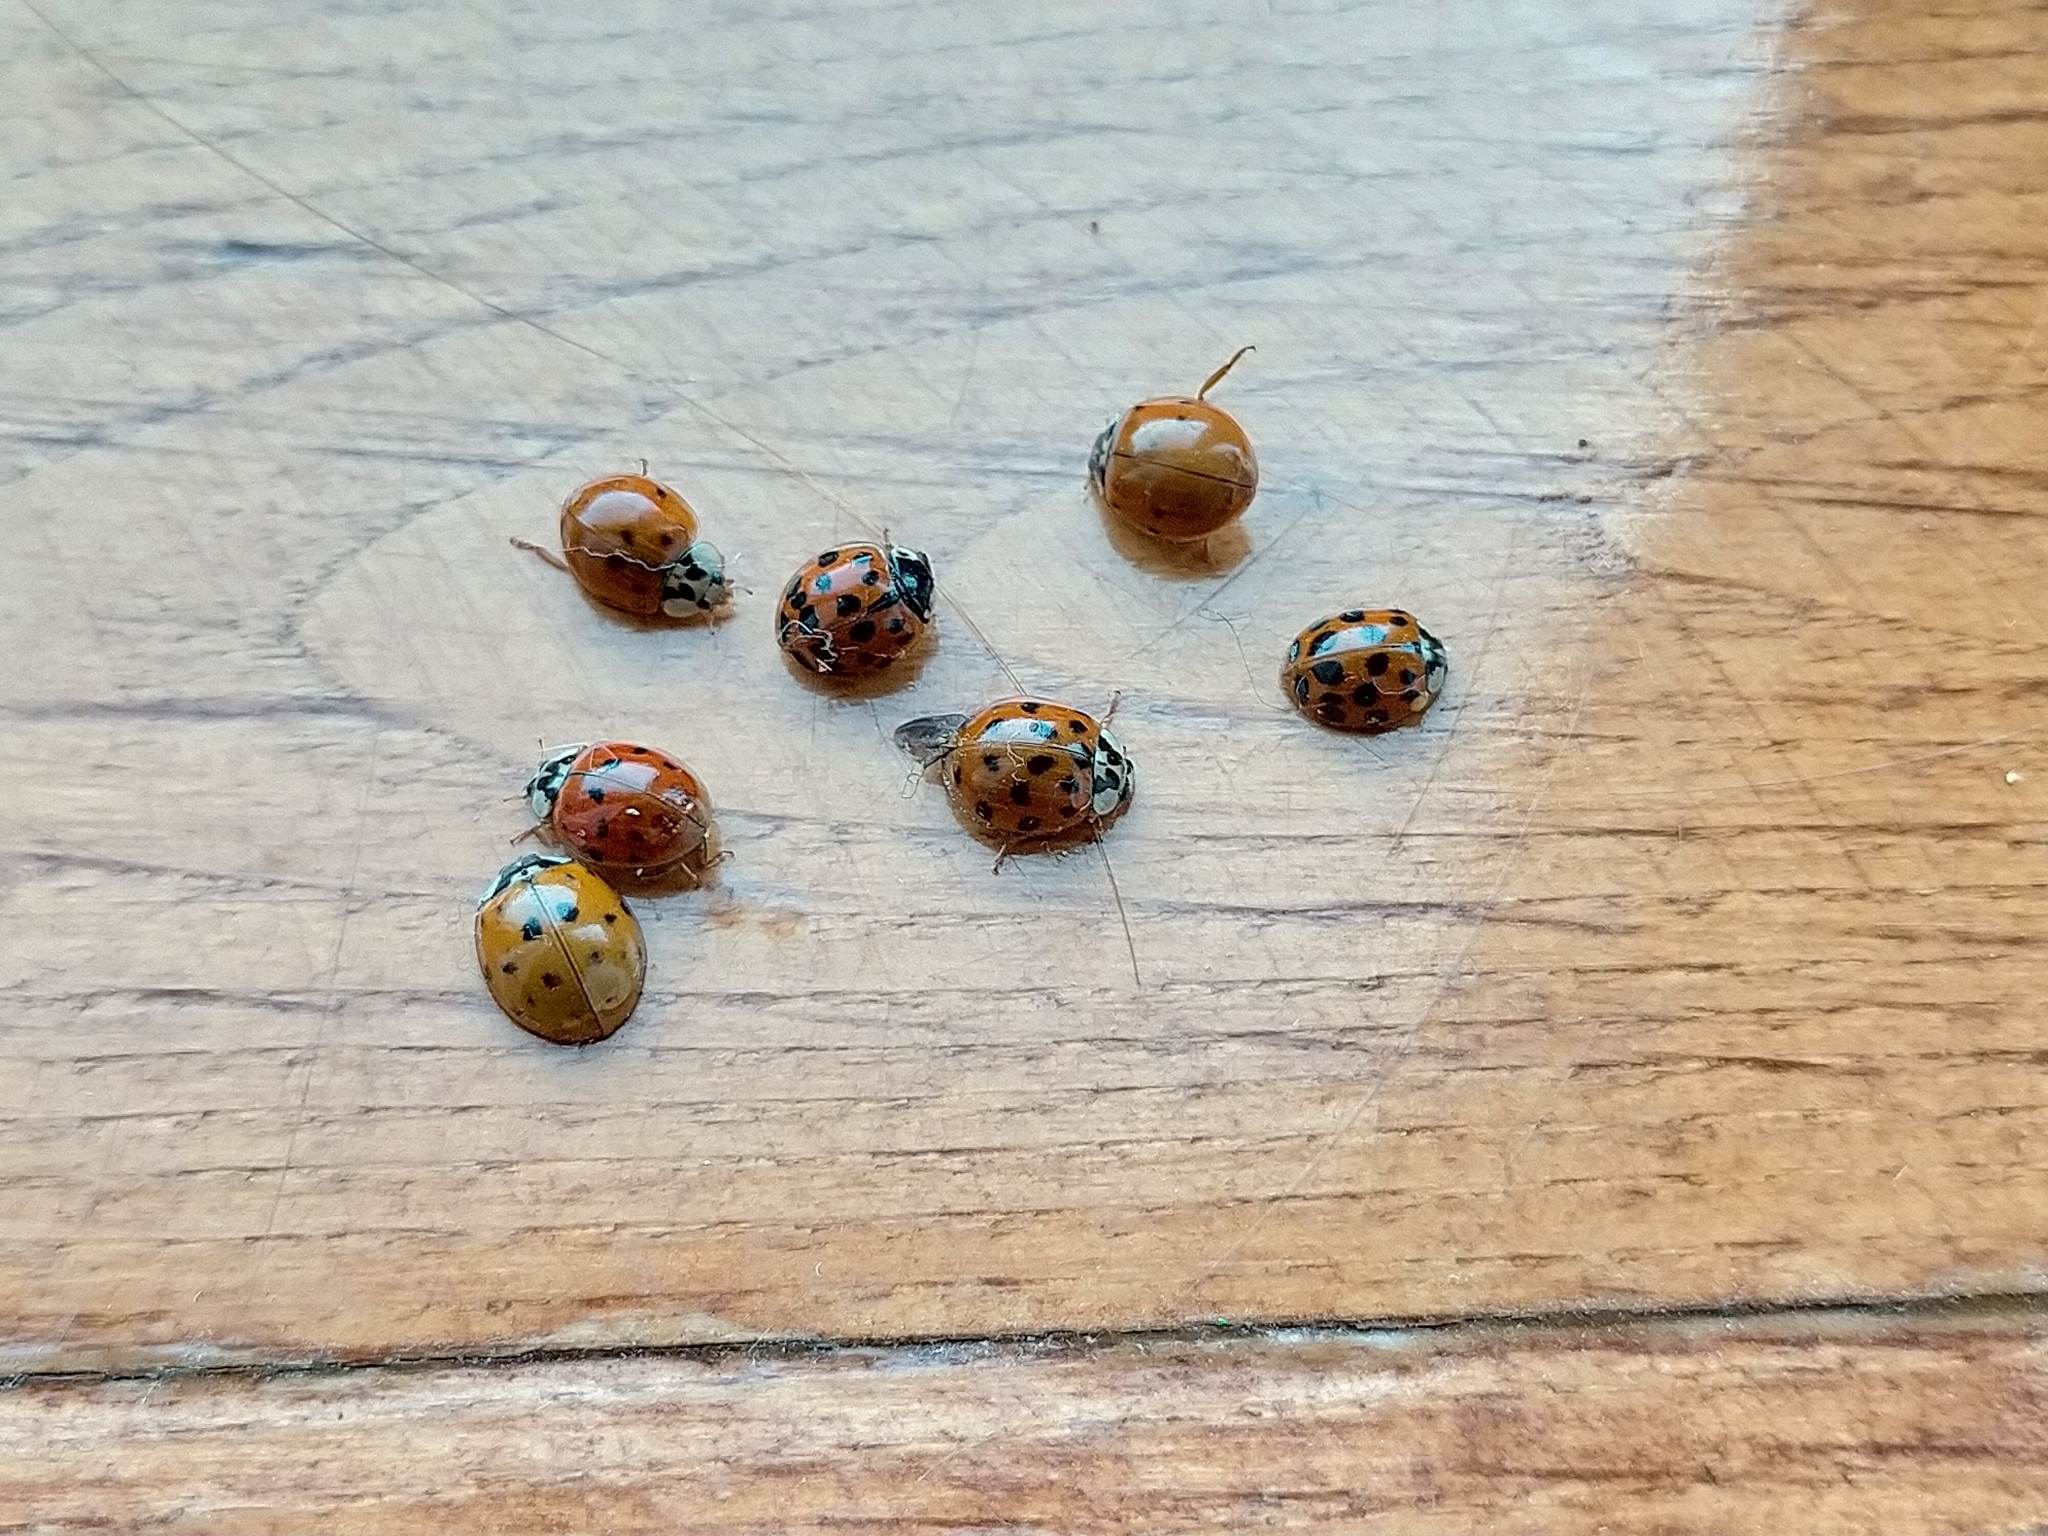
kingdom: Animalia
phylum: Arthropoda
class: Insecta
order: Coleoptera
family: Coccinellidae
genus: Harmonia
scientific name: Harmonia axyridis
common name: Harlequin ladybird
